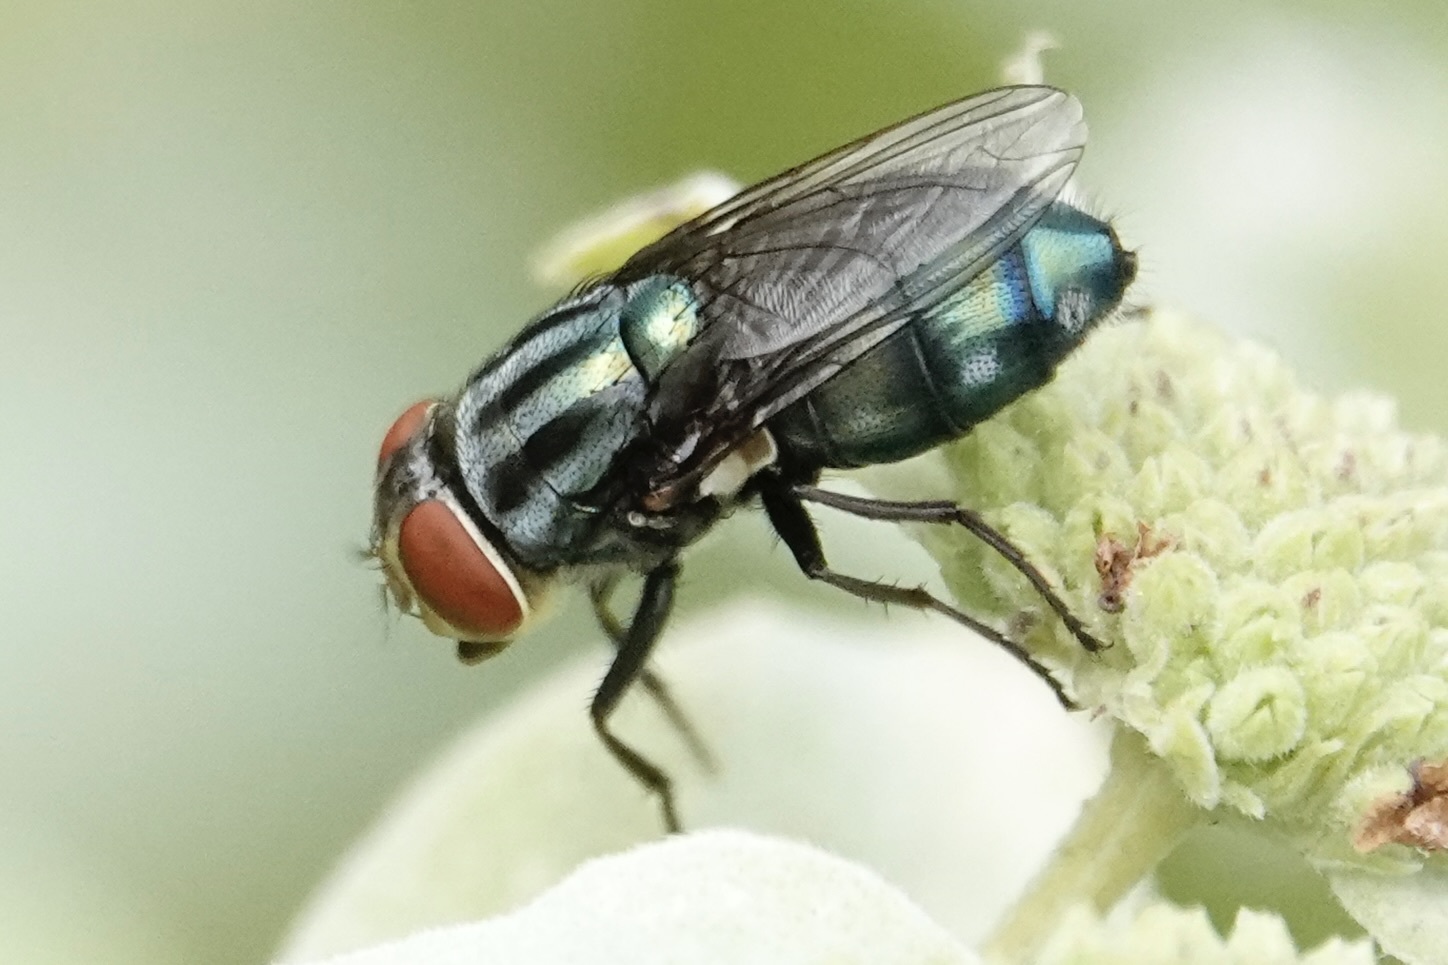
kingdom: Animalia
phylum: Arthropoda
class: Insecta
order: Diptera
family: Calliphoridae
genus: Cochliomyia
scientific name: Cochliomyia macellaria
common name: Secondary screwworm
